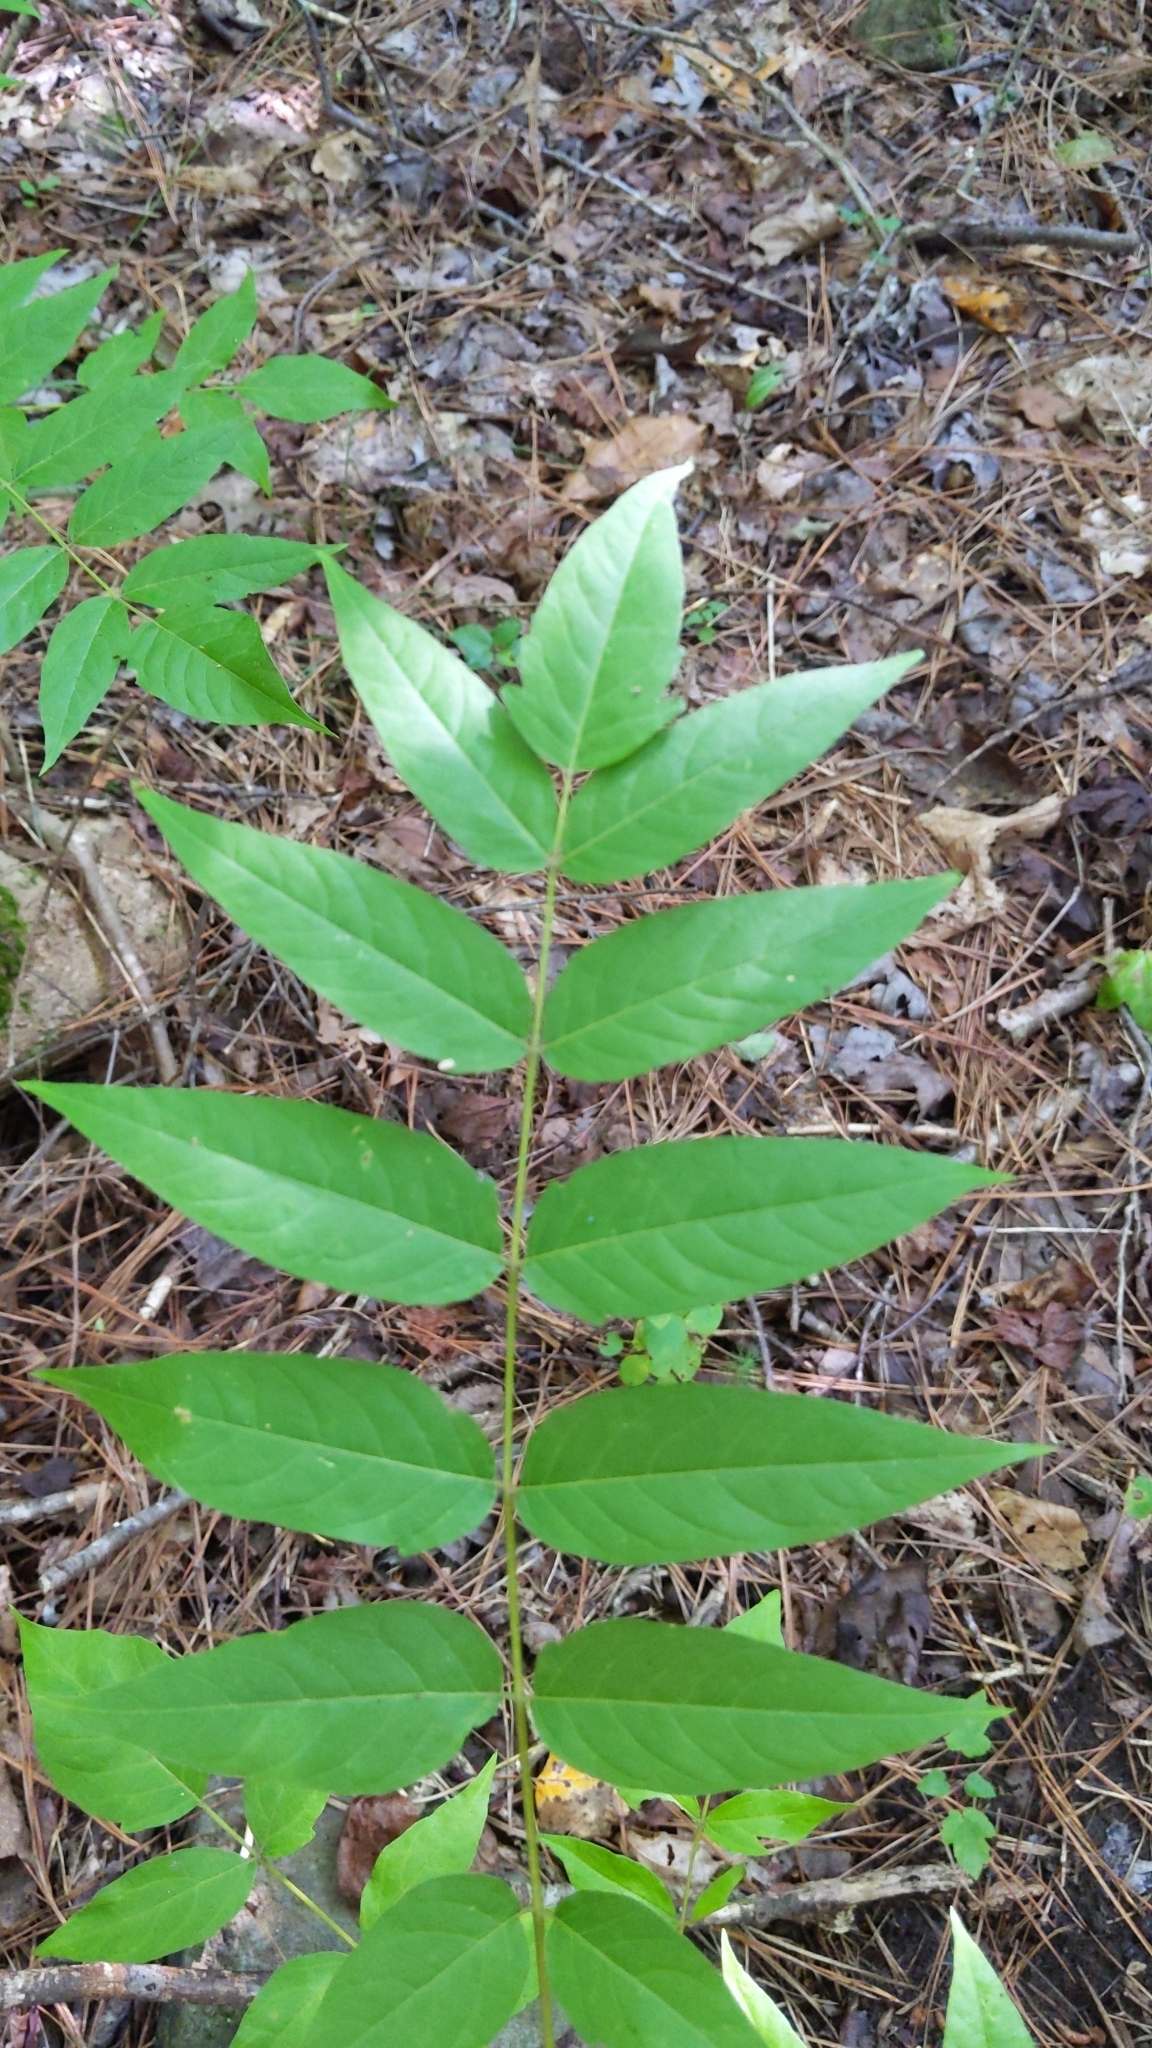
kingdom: Plantae
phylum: Tracheophyta
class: Magnoliopsida
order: Sapindales
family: Simaroubaceae
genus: Ailanthus
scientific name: Ailanthus altissima
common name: Tree-of-heaven
